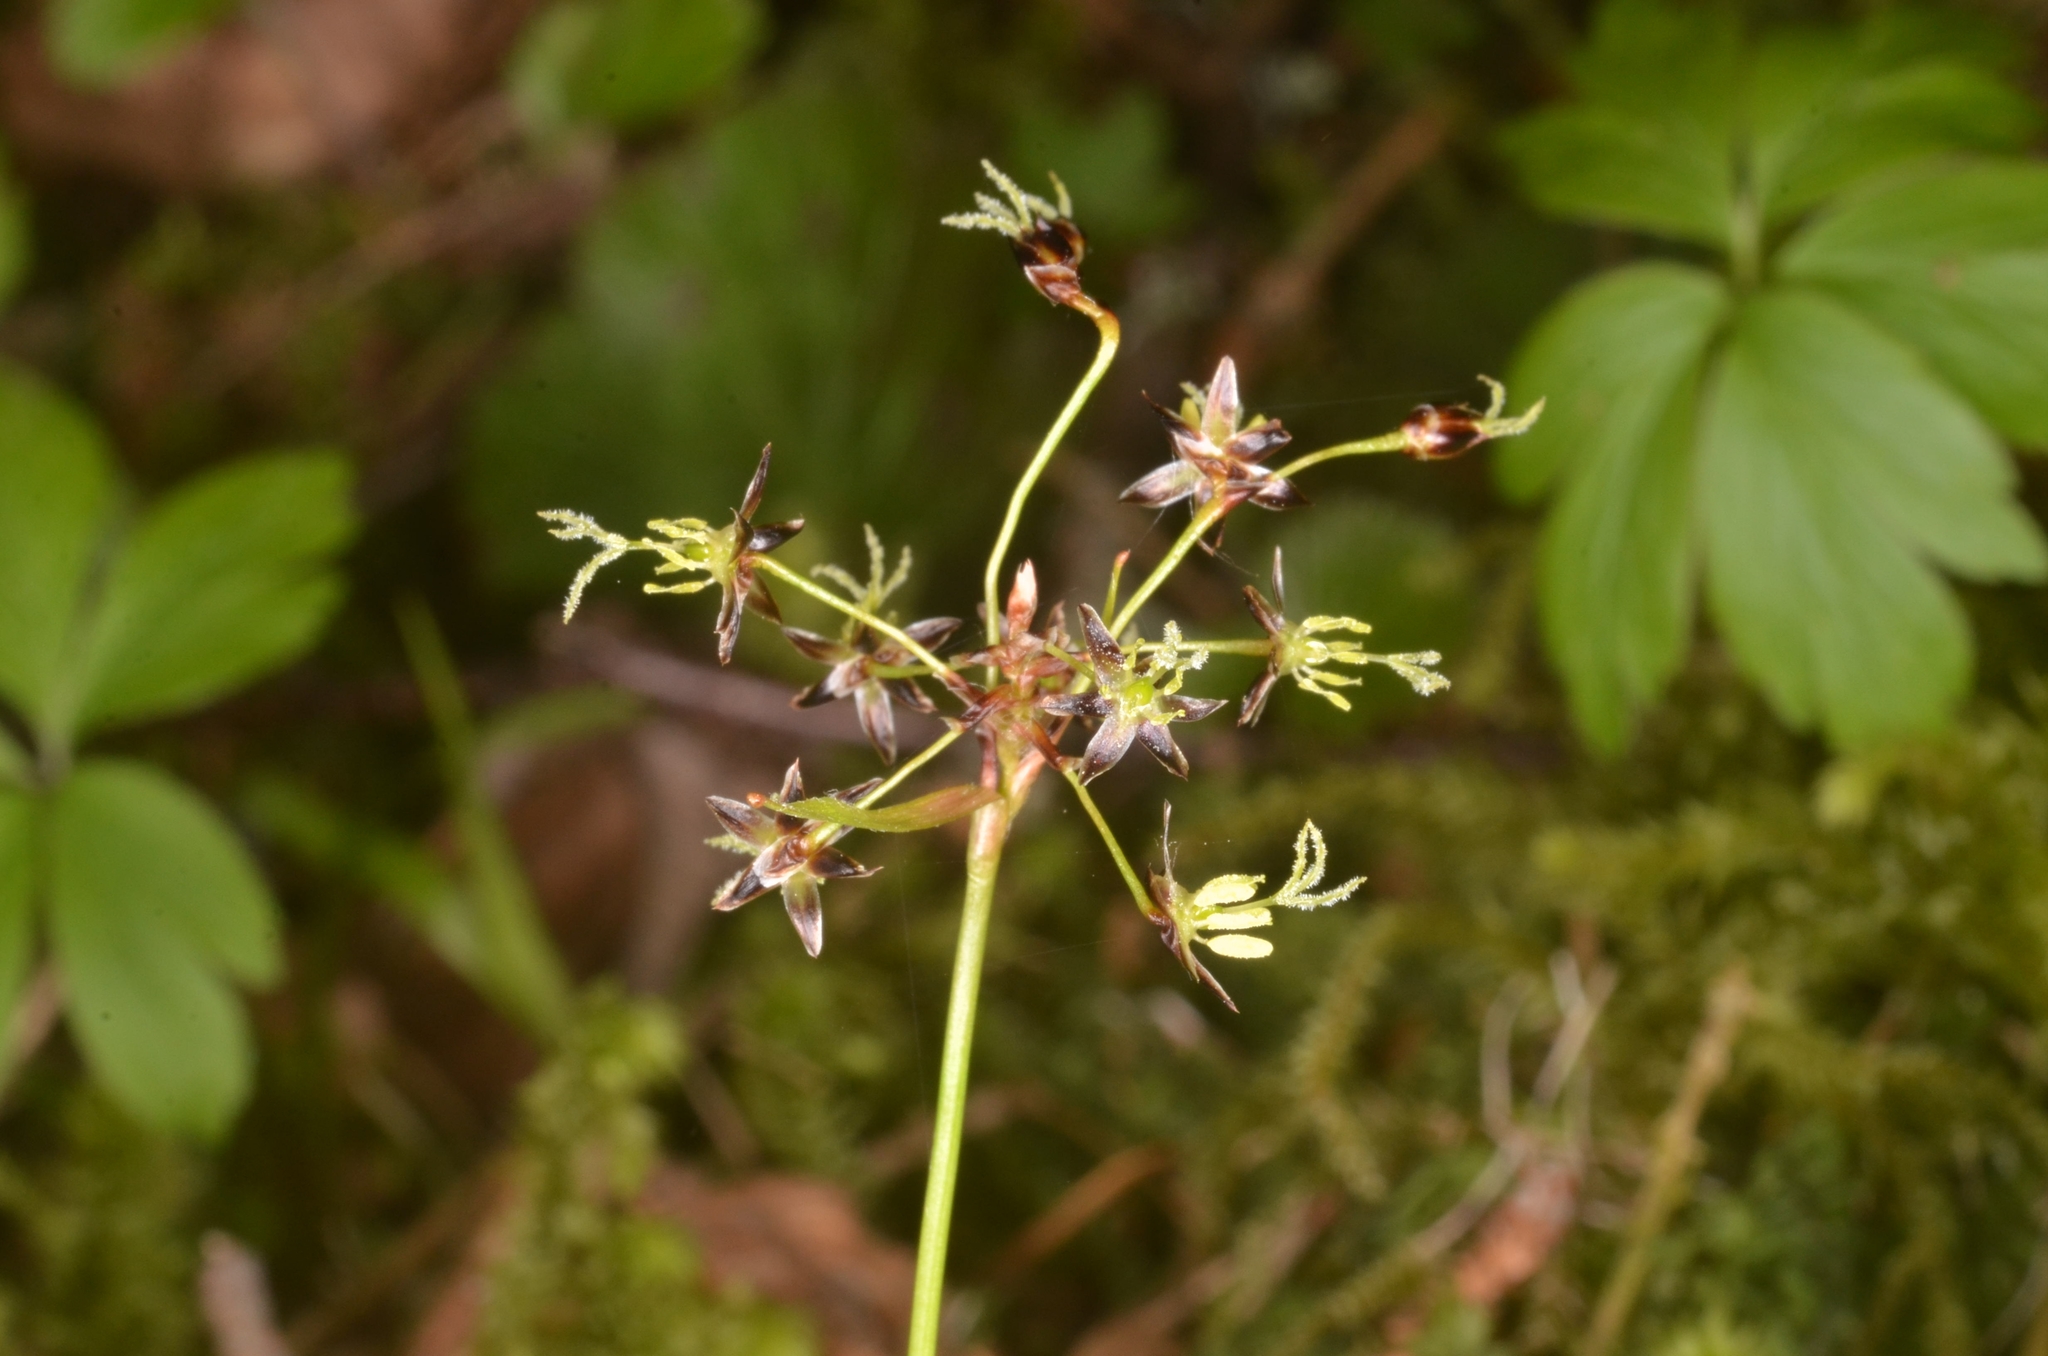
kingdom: Plantae
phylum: Tracheophyta
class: Liliopsida
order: Poales
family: Juncaceae
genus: Luzula
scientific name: Luzula pilosa
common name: Hairy wood-rush
